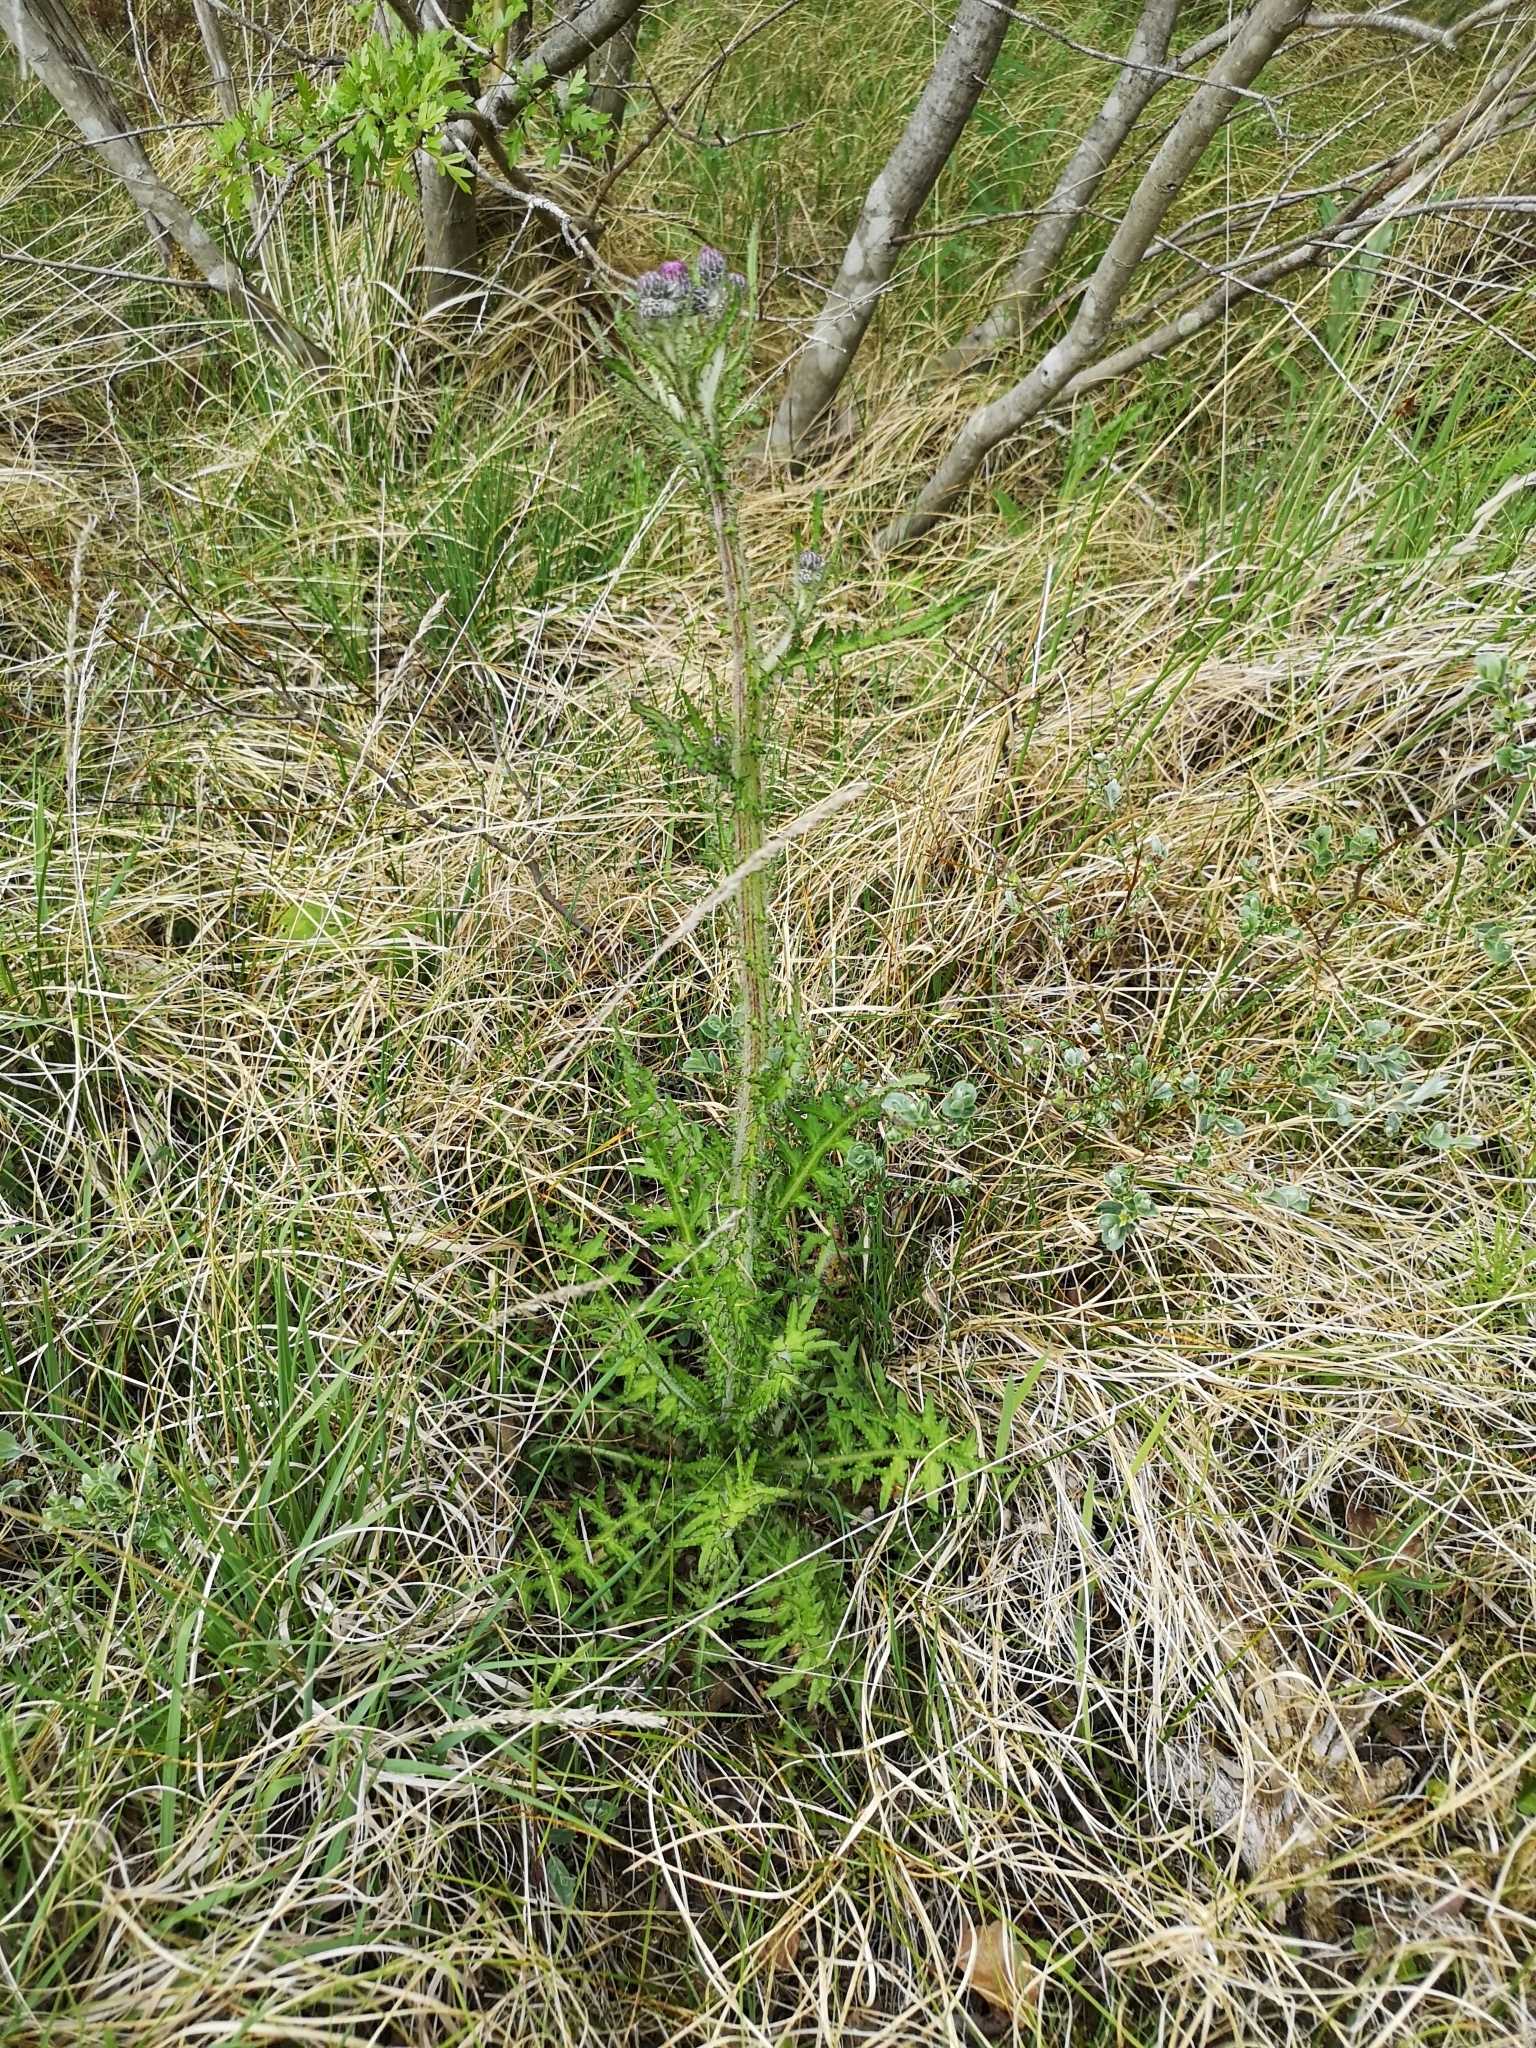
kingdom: Plantae
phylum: Tracheophyta
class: Magnoliopsida
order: Asterales
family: Asteraceae
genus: Cirsium
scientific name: Cirsium palustre
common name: Marsh thistle
